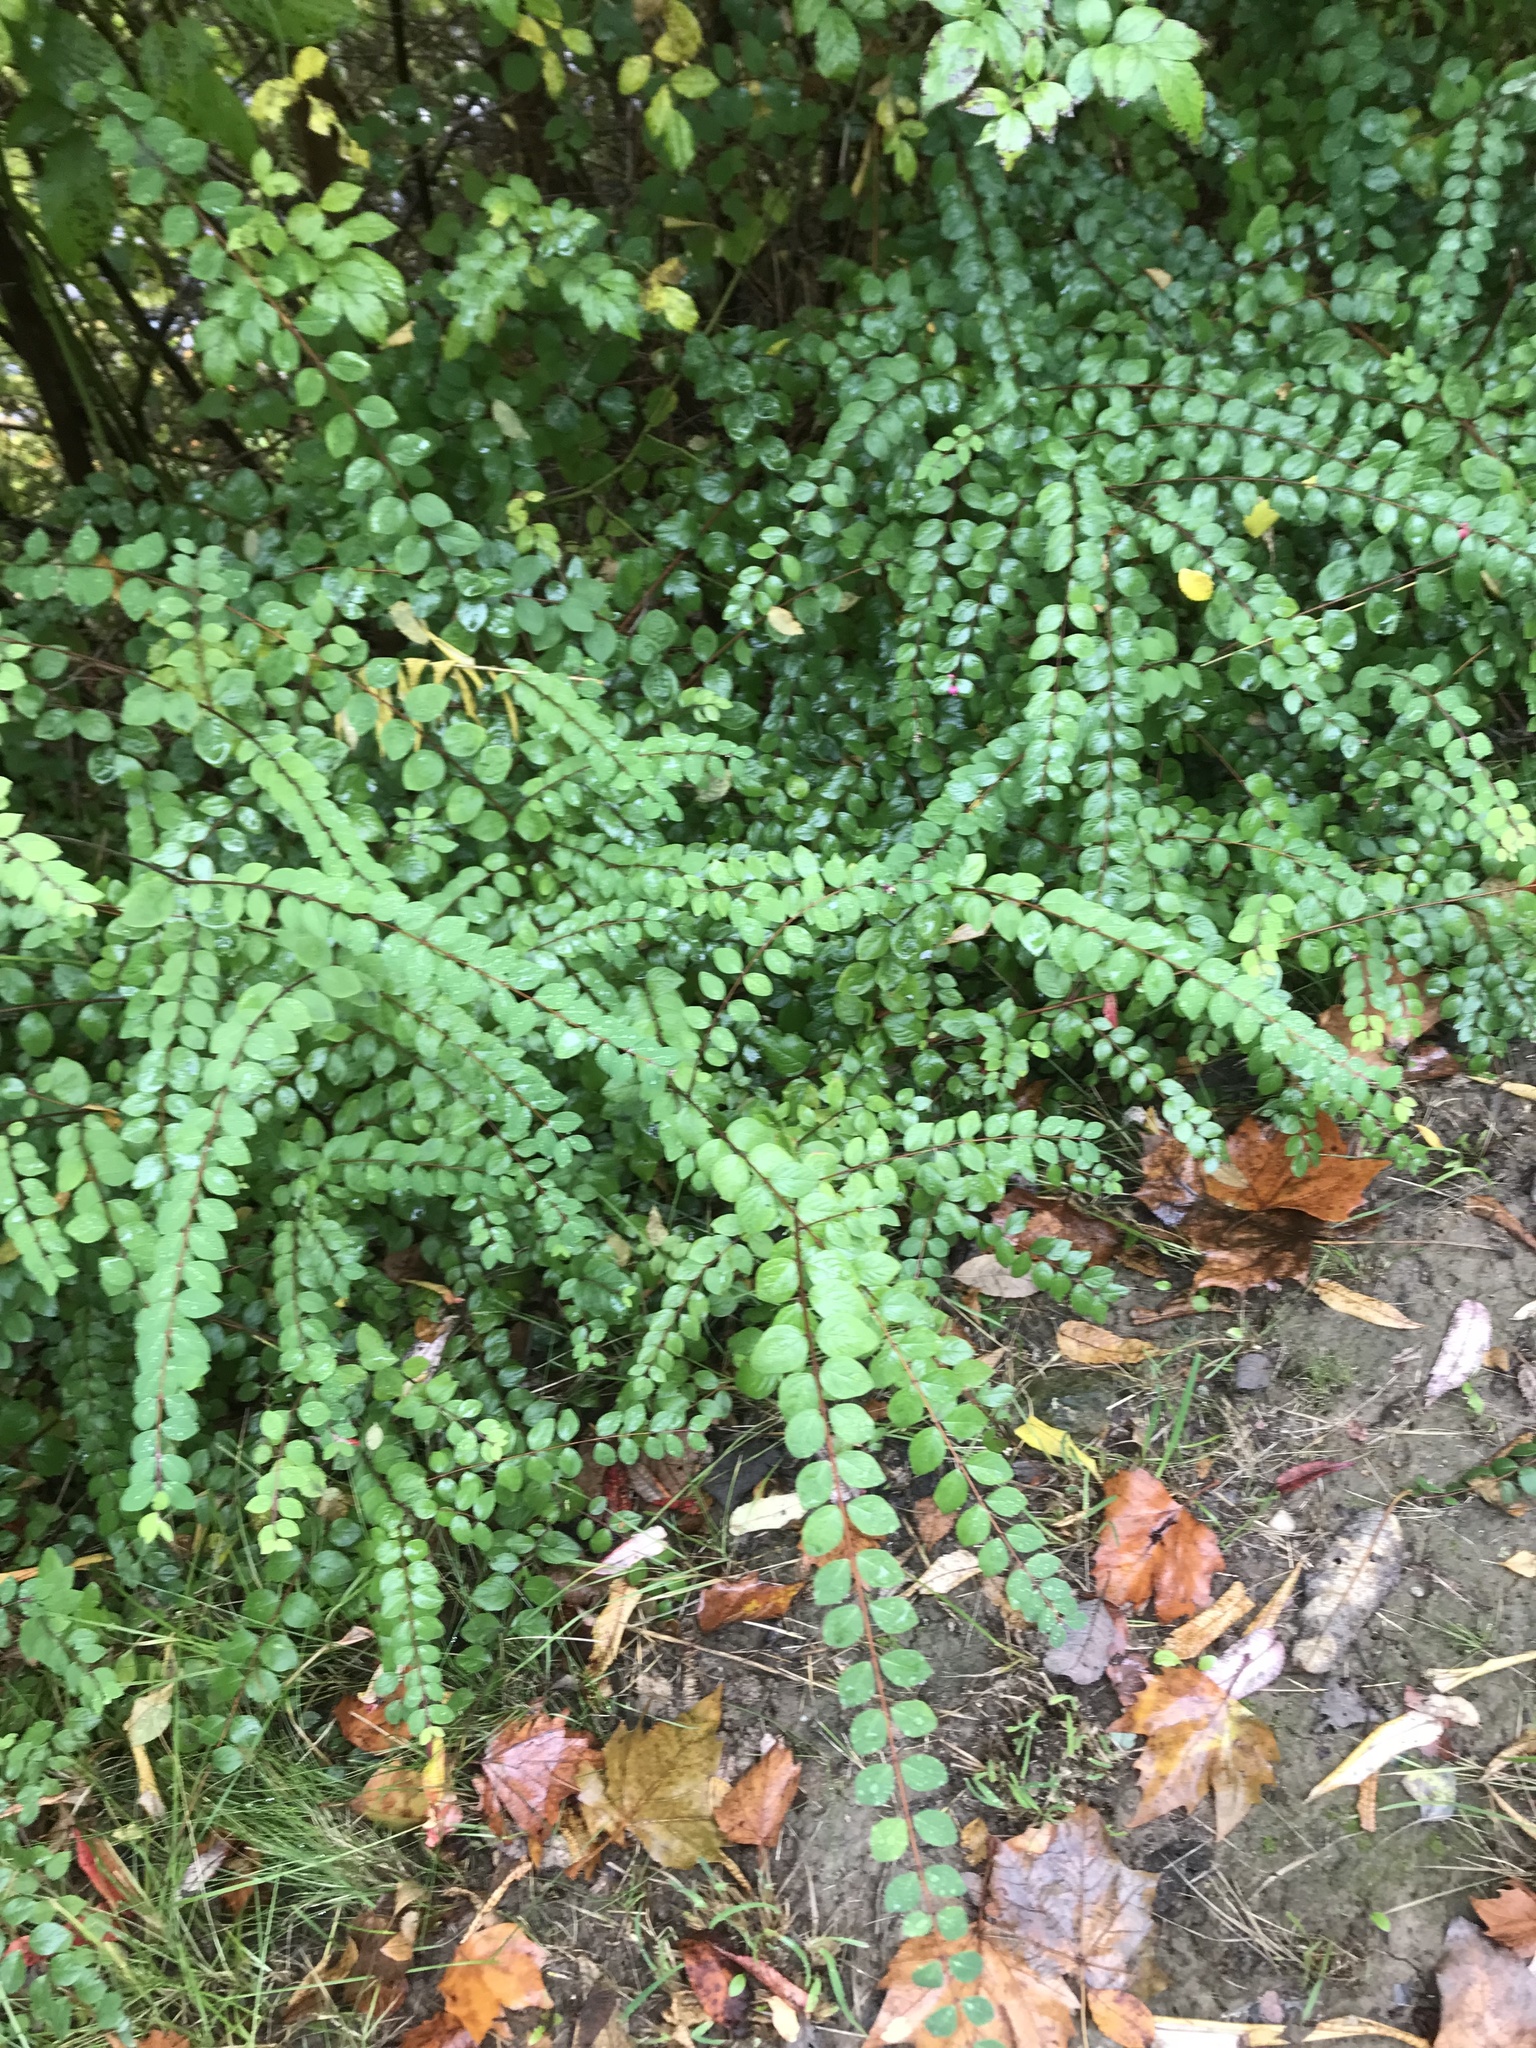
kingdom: Plantae
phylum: Tracheophyta
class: Polypodiopsida
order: Polypodiales
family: Aspleniaceae
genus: Asplenium
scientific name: Asplenium trichomanes
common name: Maidenhair spleenwort
